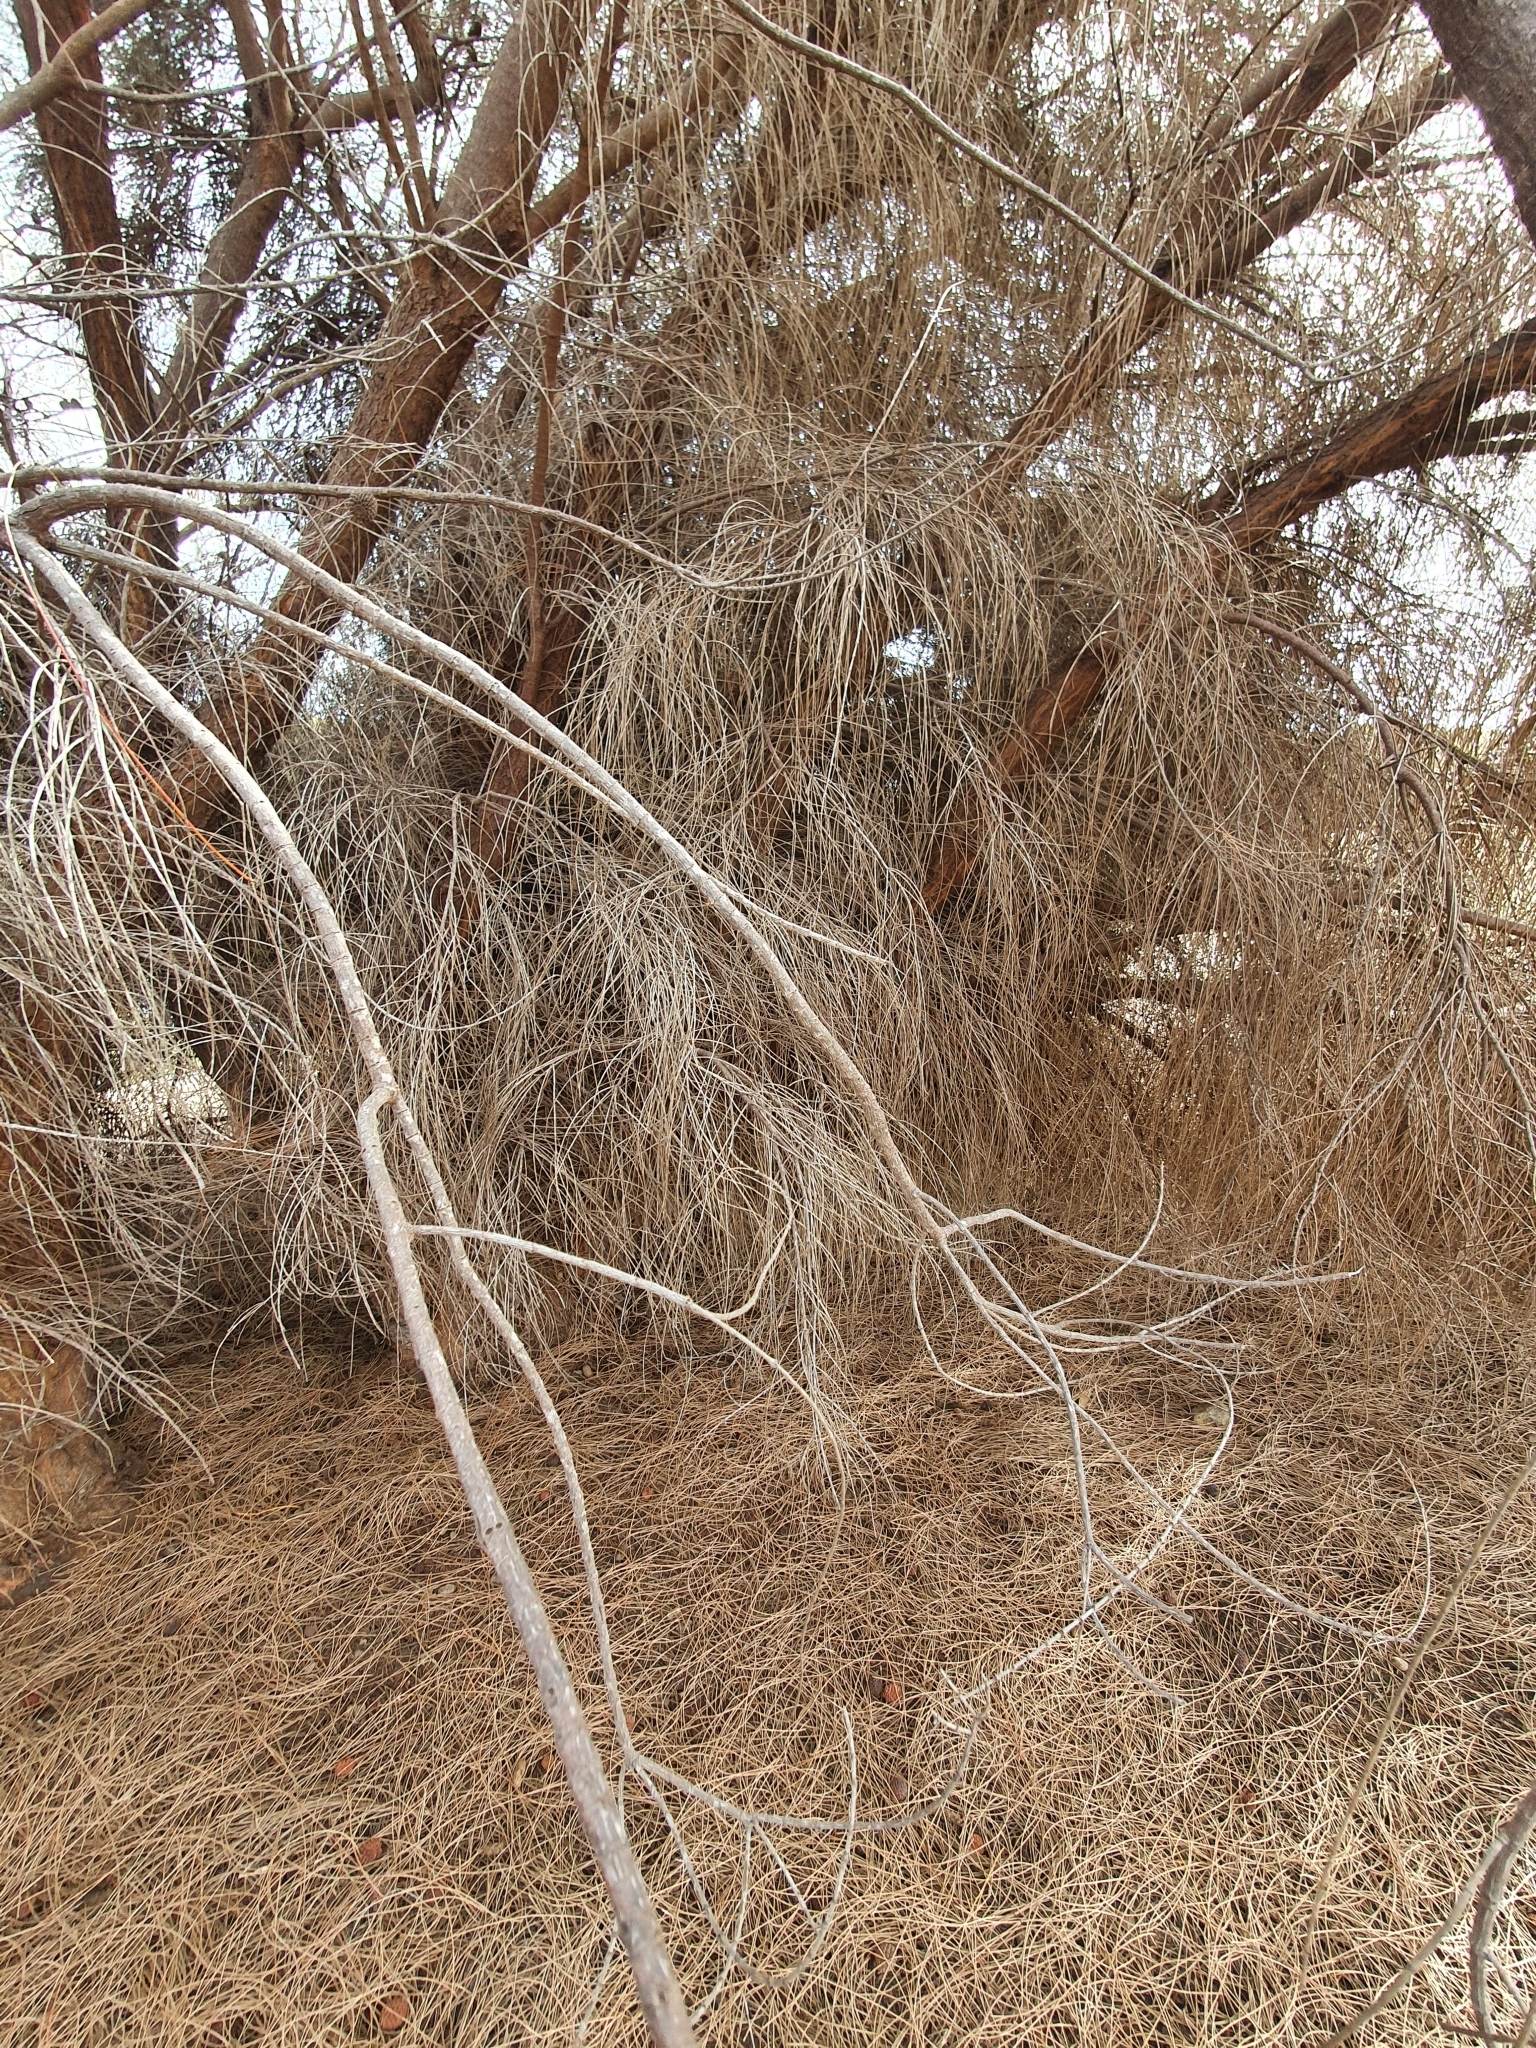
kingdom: Plantae
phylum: Tracheophyta
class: Magnoliopsida
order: Fagales
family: Casuarinaceae
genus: Allocasuarina
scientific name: Allocasuarina verticillata
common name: Drooping she-oak
